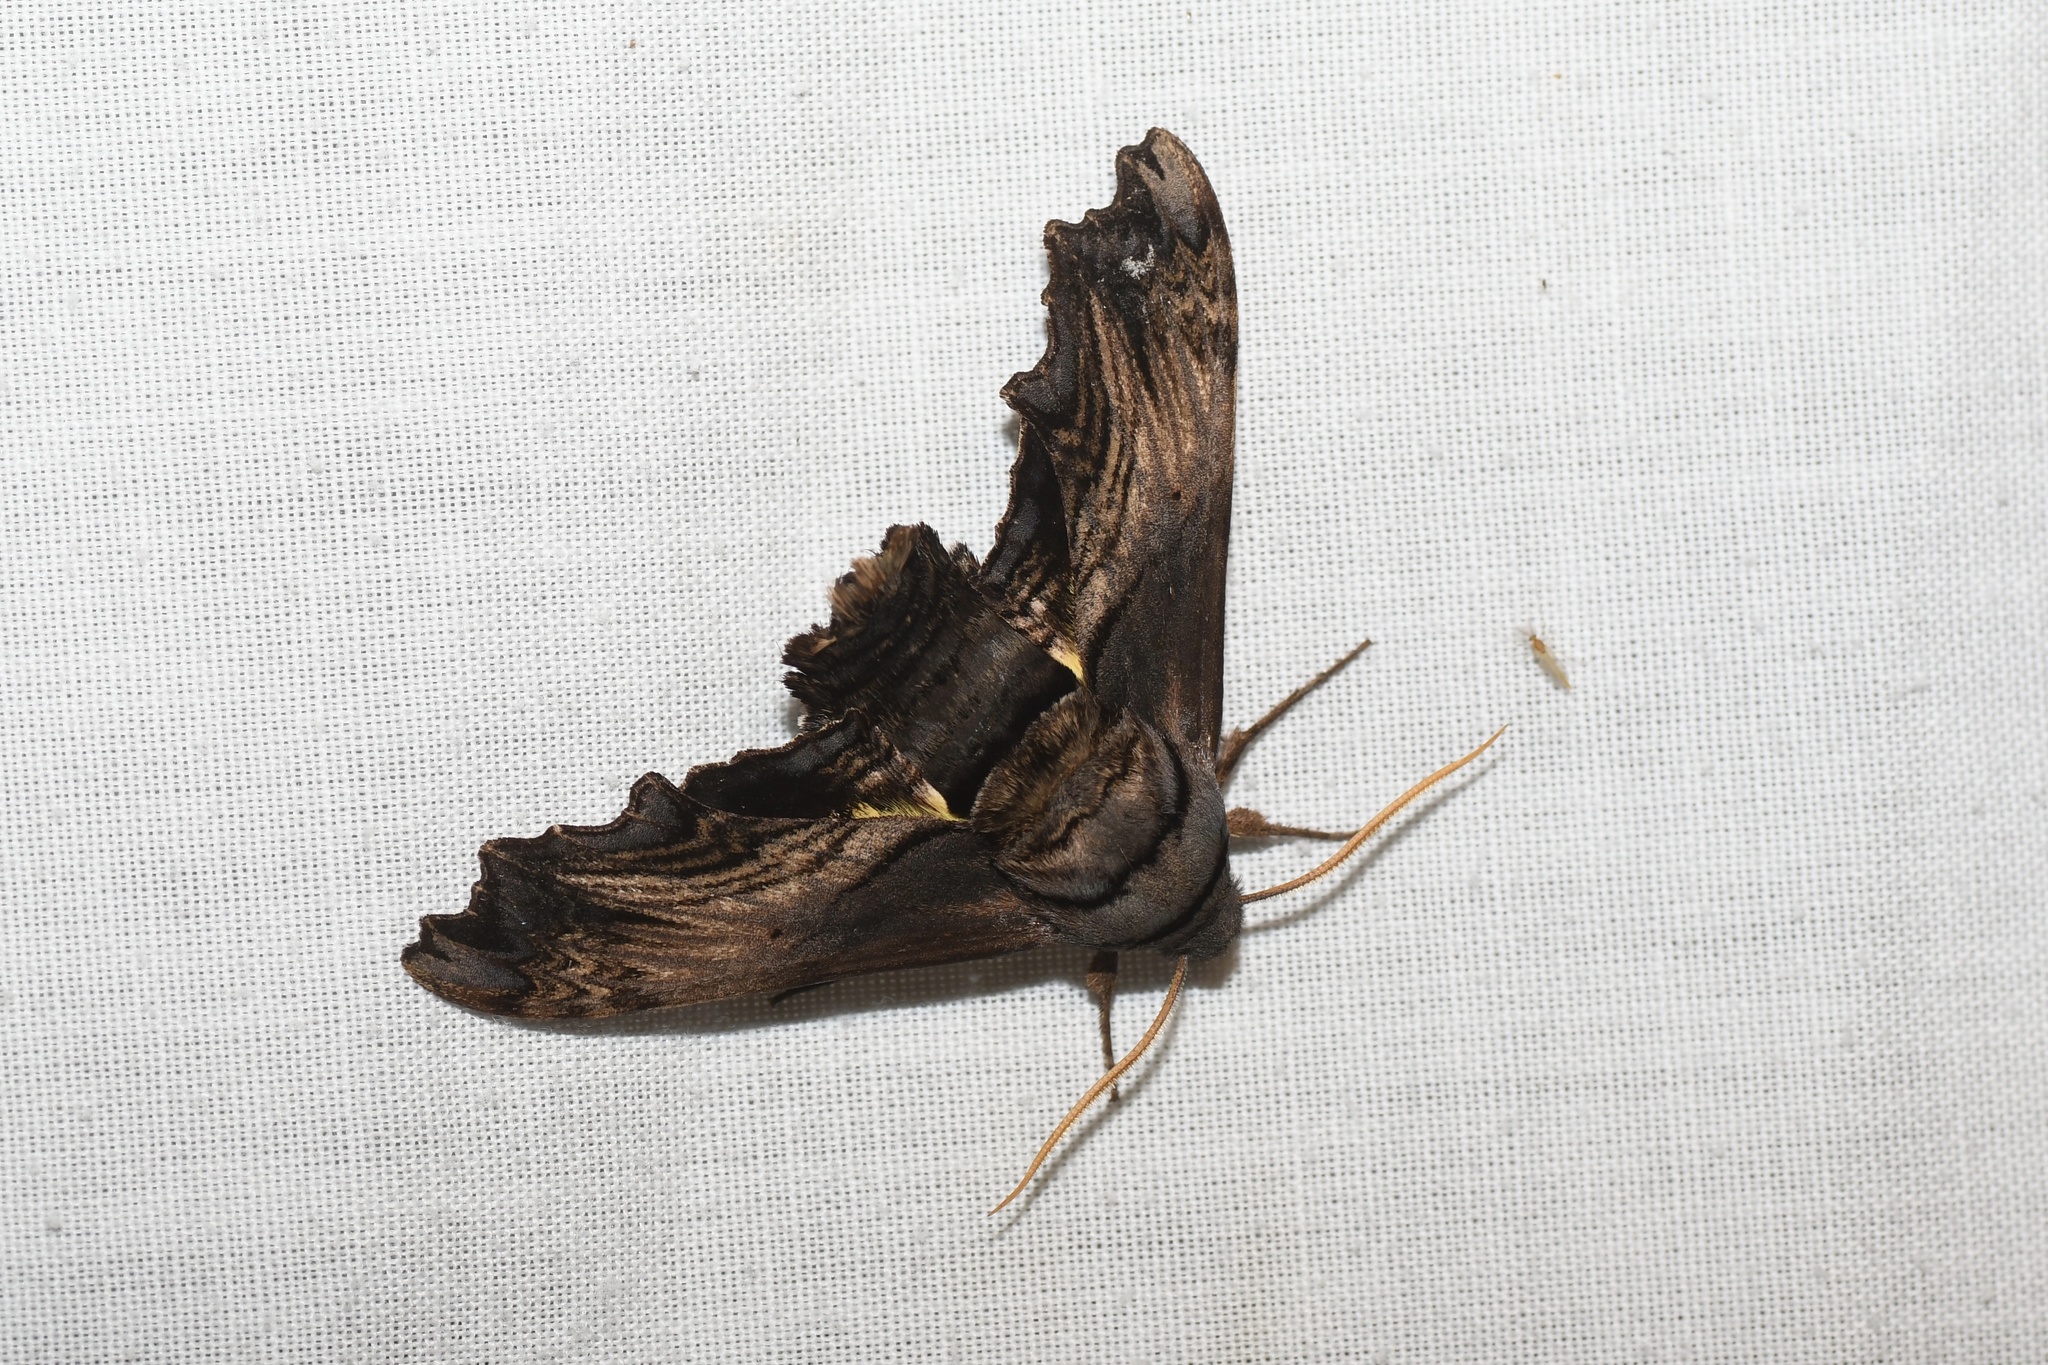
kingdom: Animalia
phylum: Arthropoda
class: Insecta
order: Lepidoptera
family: Sphingidae
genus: Sphecodina
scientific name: Sphecodina abbottii
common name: Abbott's sphinx
